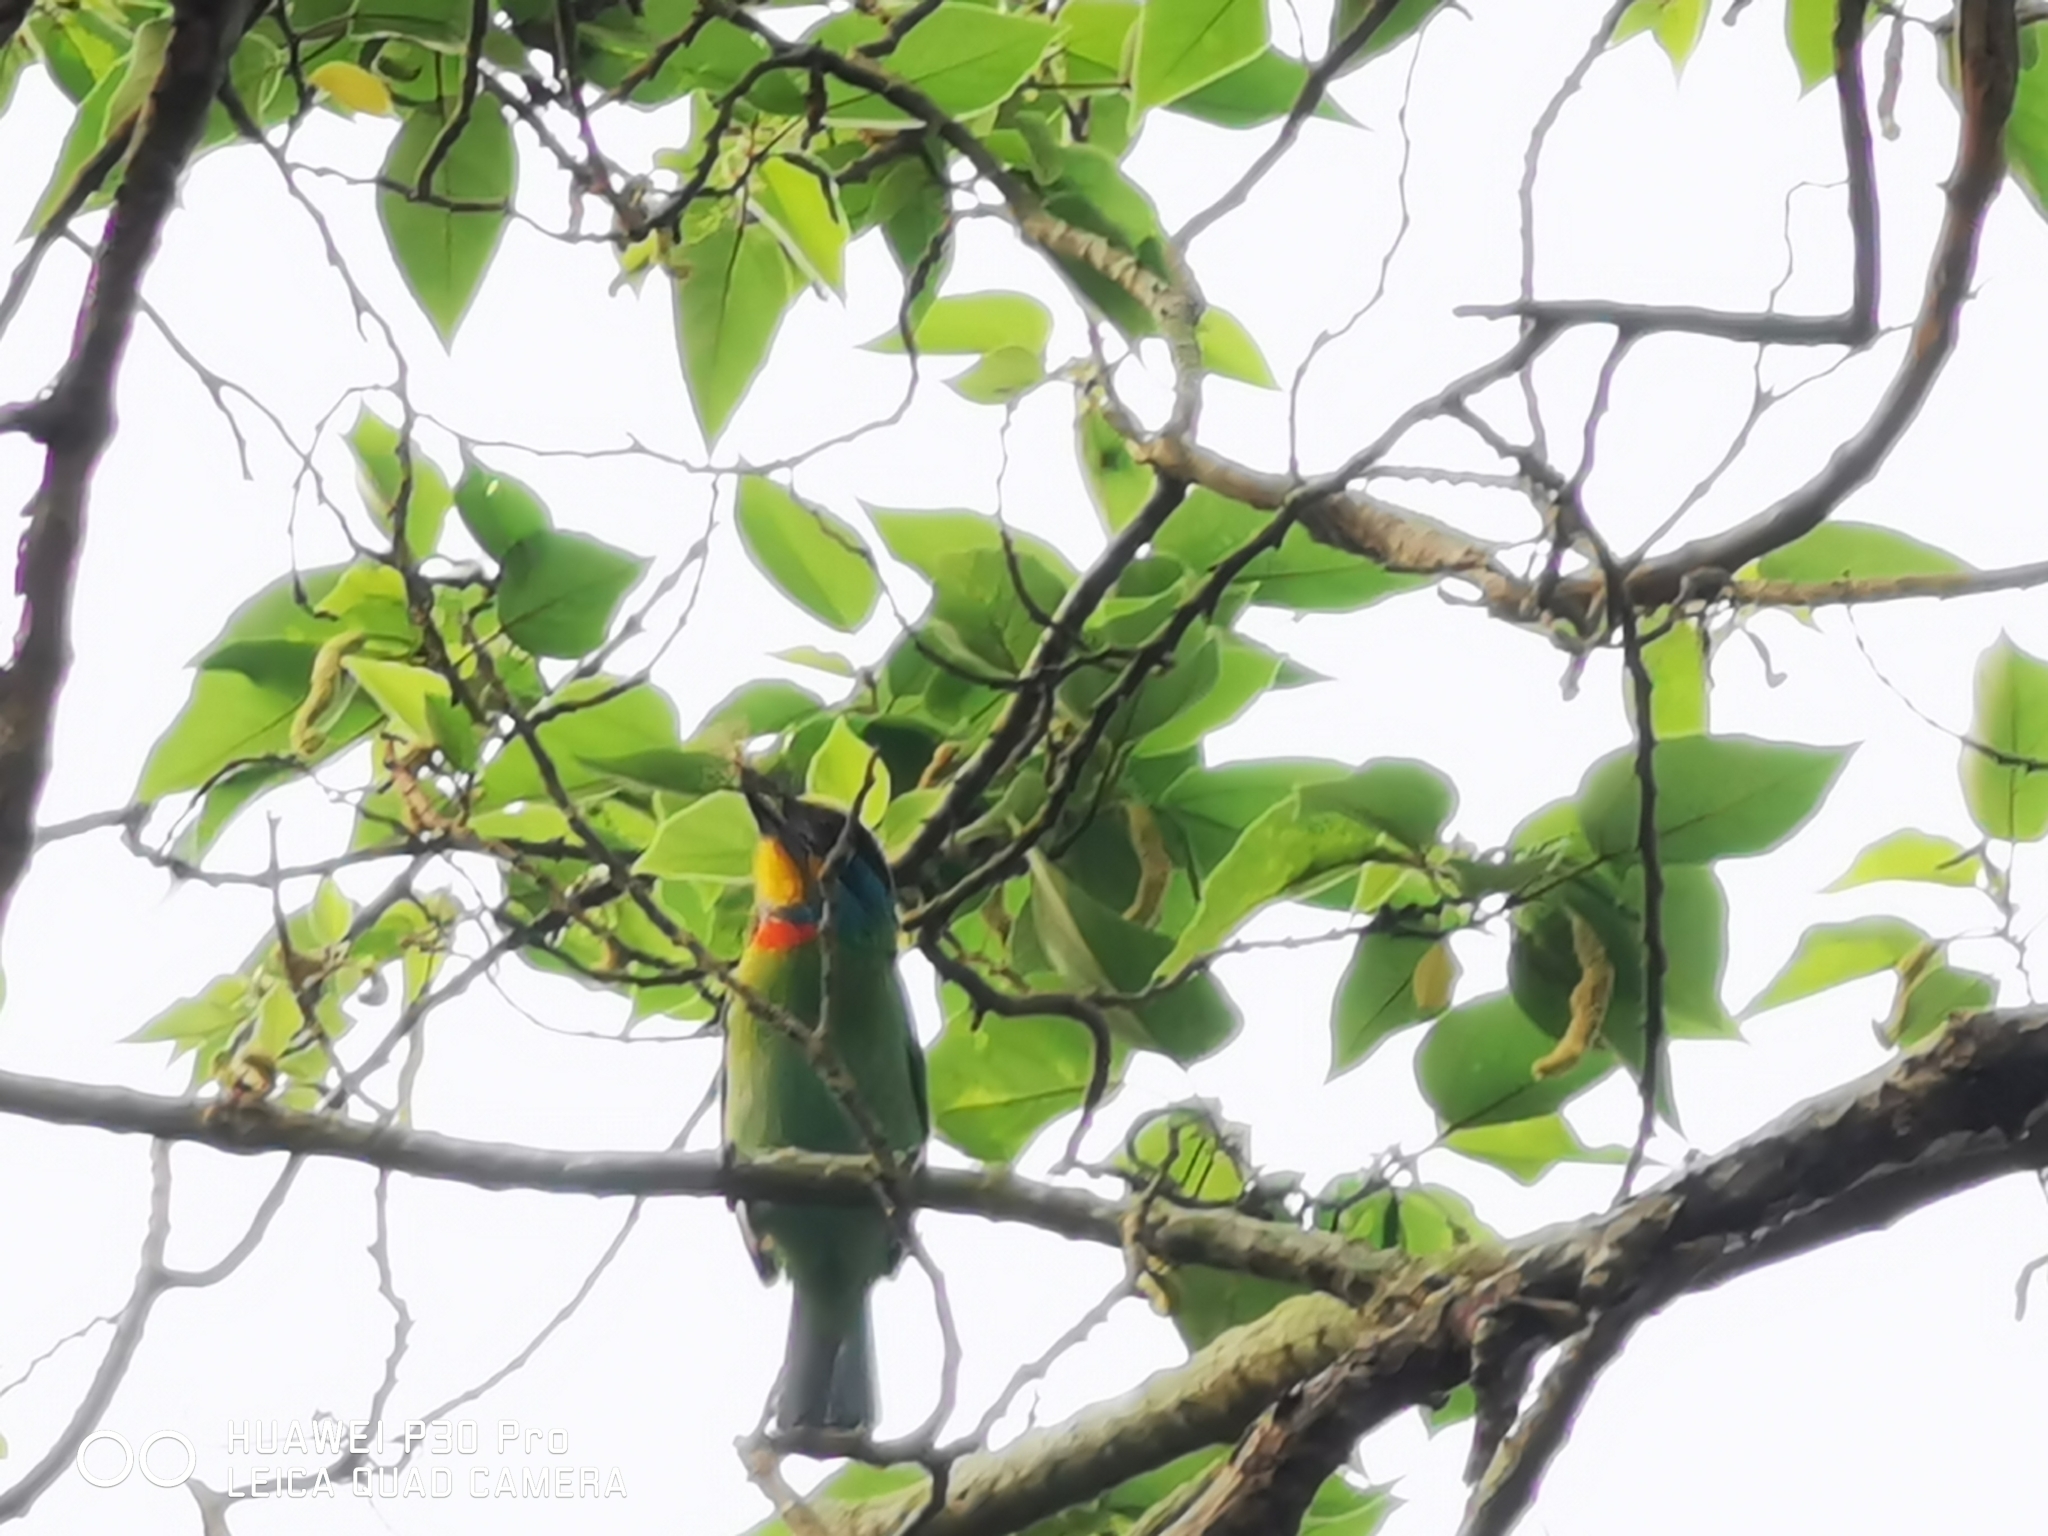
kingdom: Animalia
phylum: Chordata
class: Aves
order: Piciformes
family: Megalaimidae
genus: Psilopogon
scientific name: Psilopogon nuchalis
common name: Taiwan barbet
